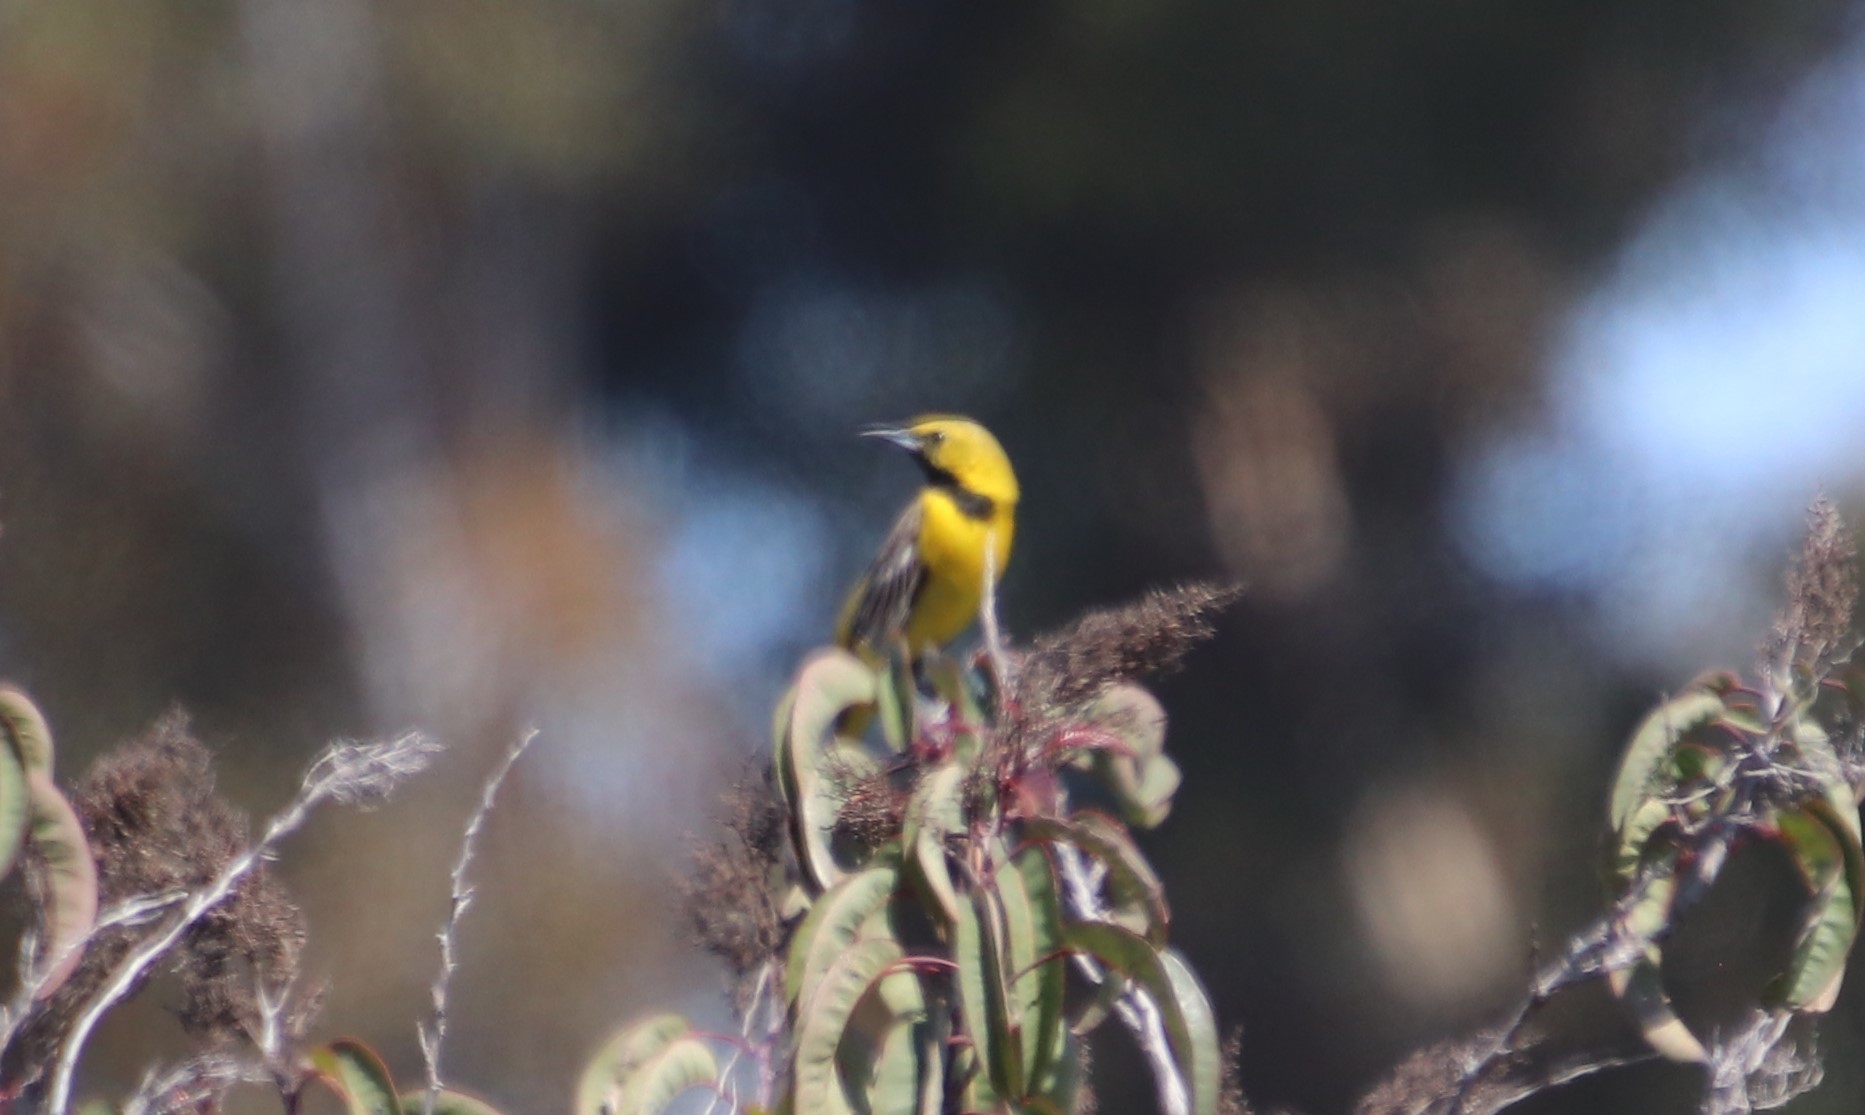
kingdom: Animalia
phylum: Chordata
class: Aves
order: Passeriformes
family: Icteridae
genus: Icterus
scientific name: Icterus cucullatus
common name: Hooded oriole
